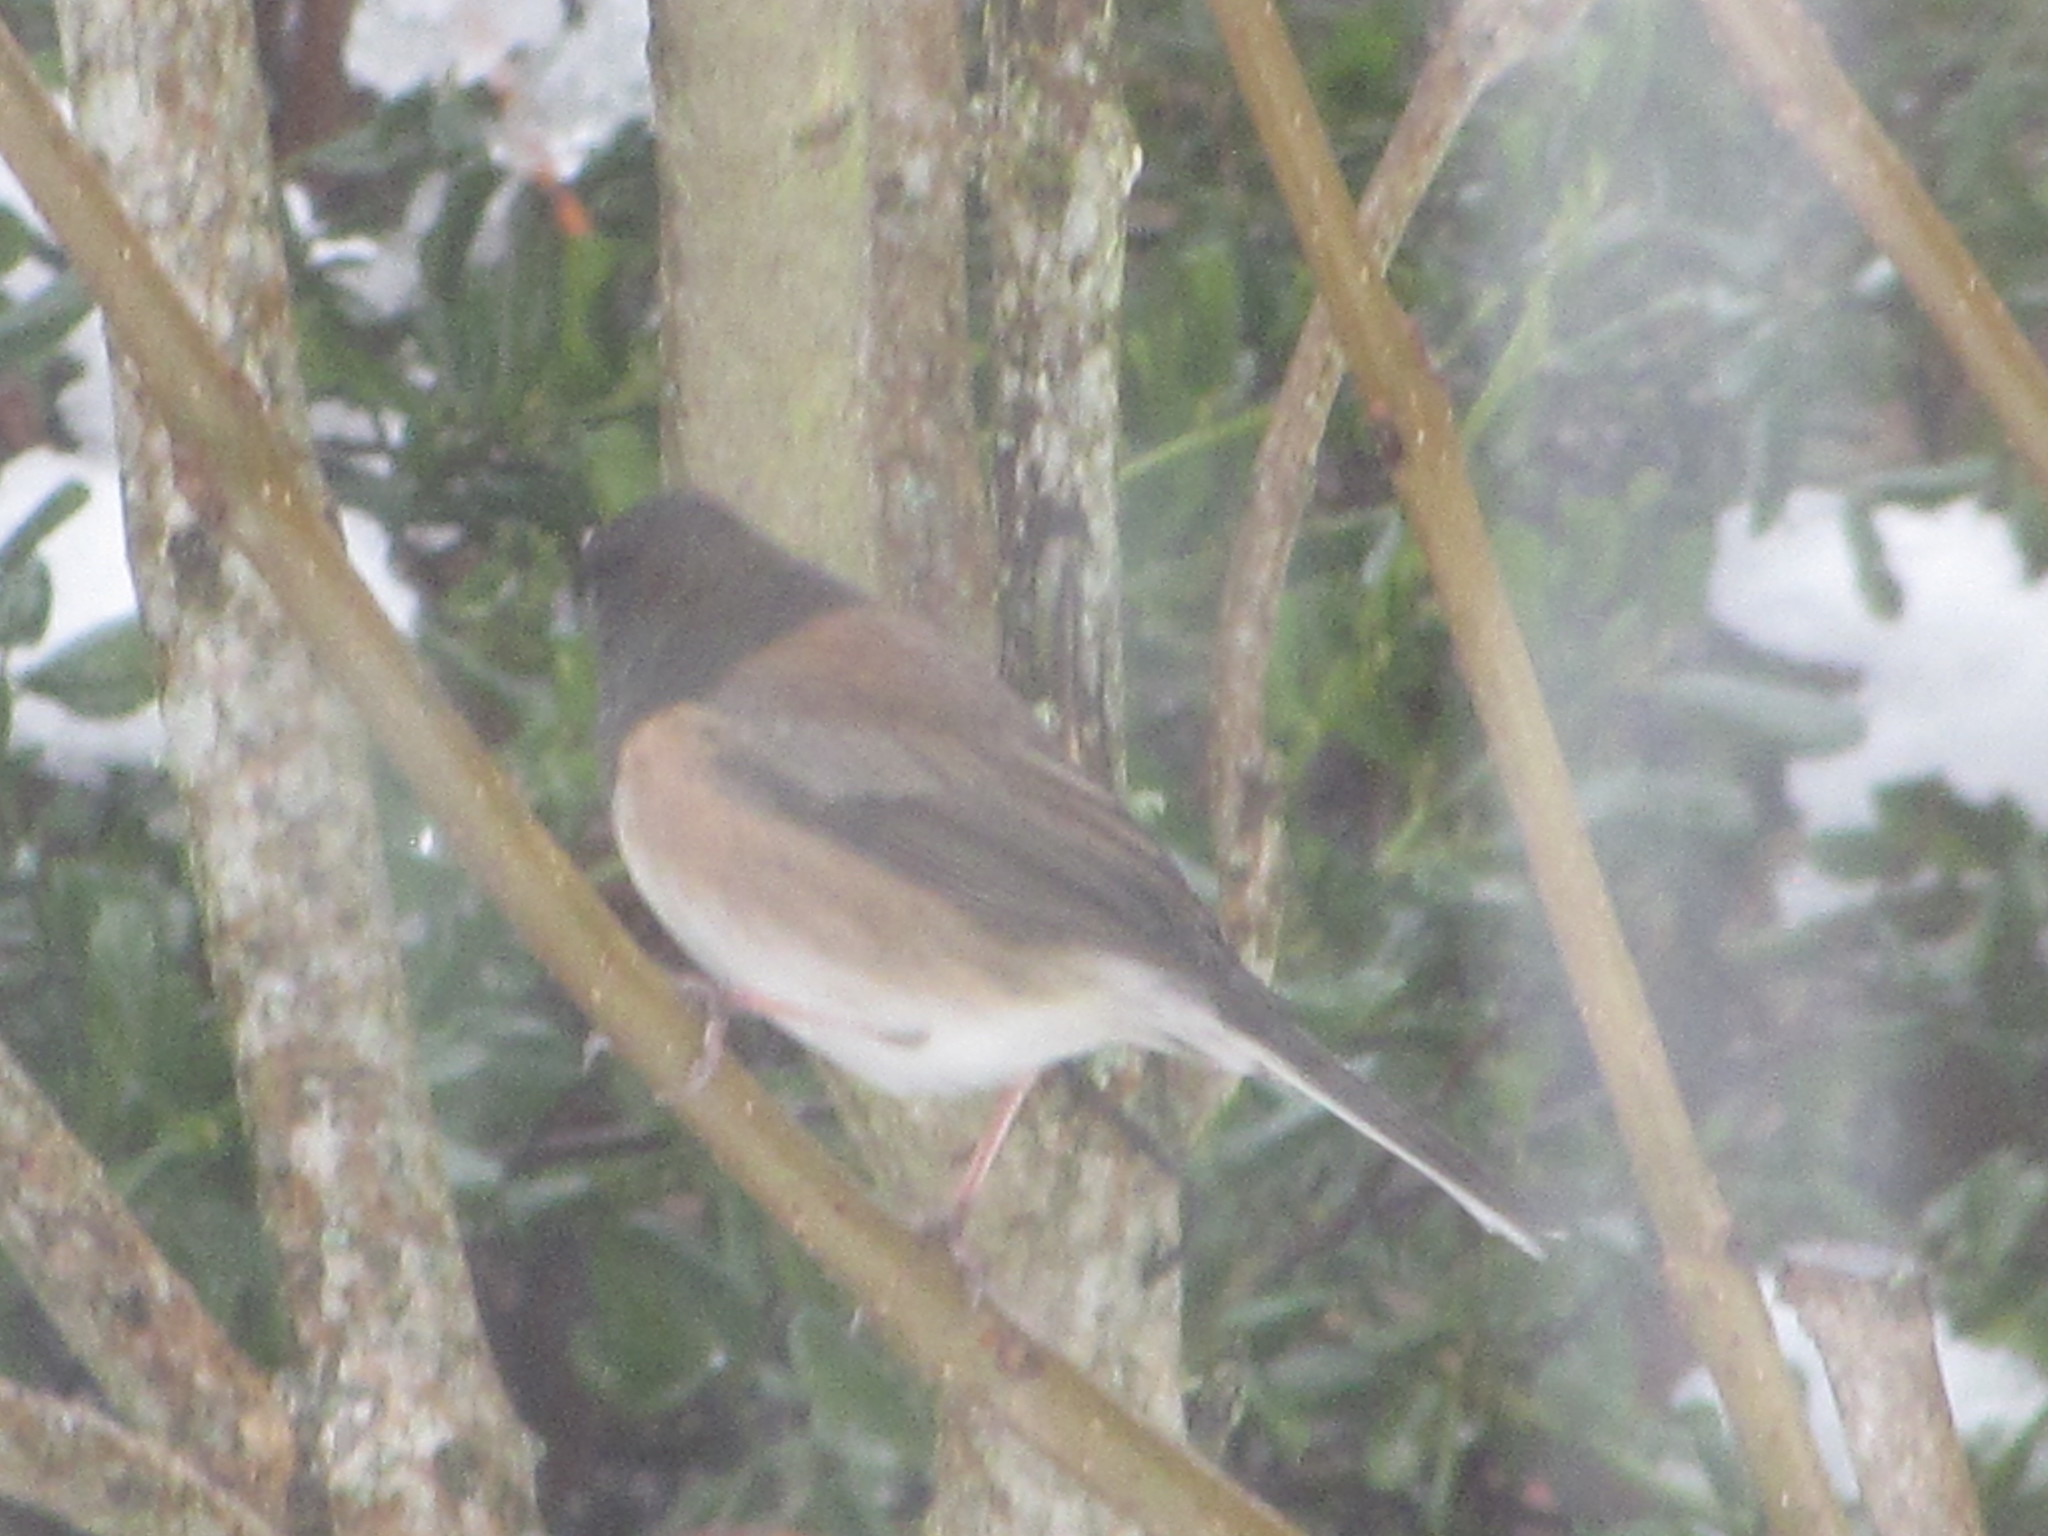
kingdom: Animalia
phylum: Chordata
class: Aves
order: Passeriformes
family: Passerellidae
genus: Junco
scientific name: Junco hyemalis
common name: Dark-eyed junco
